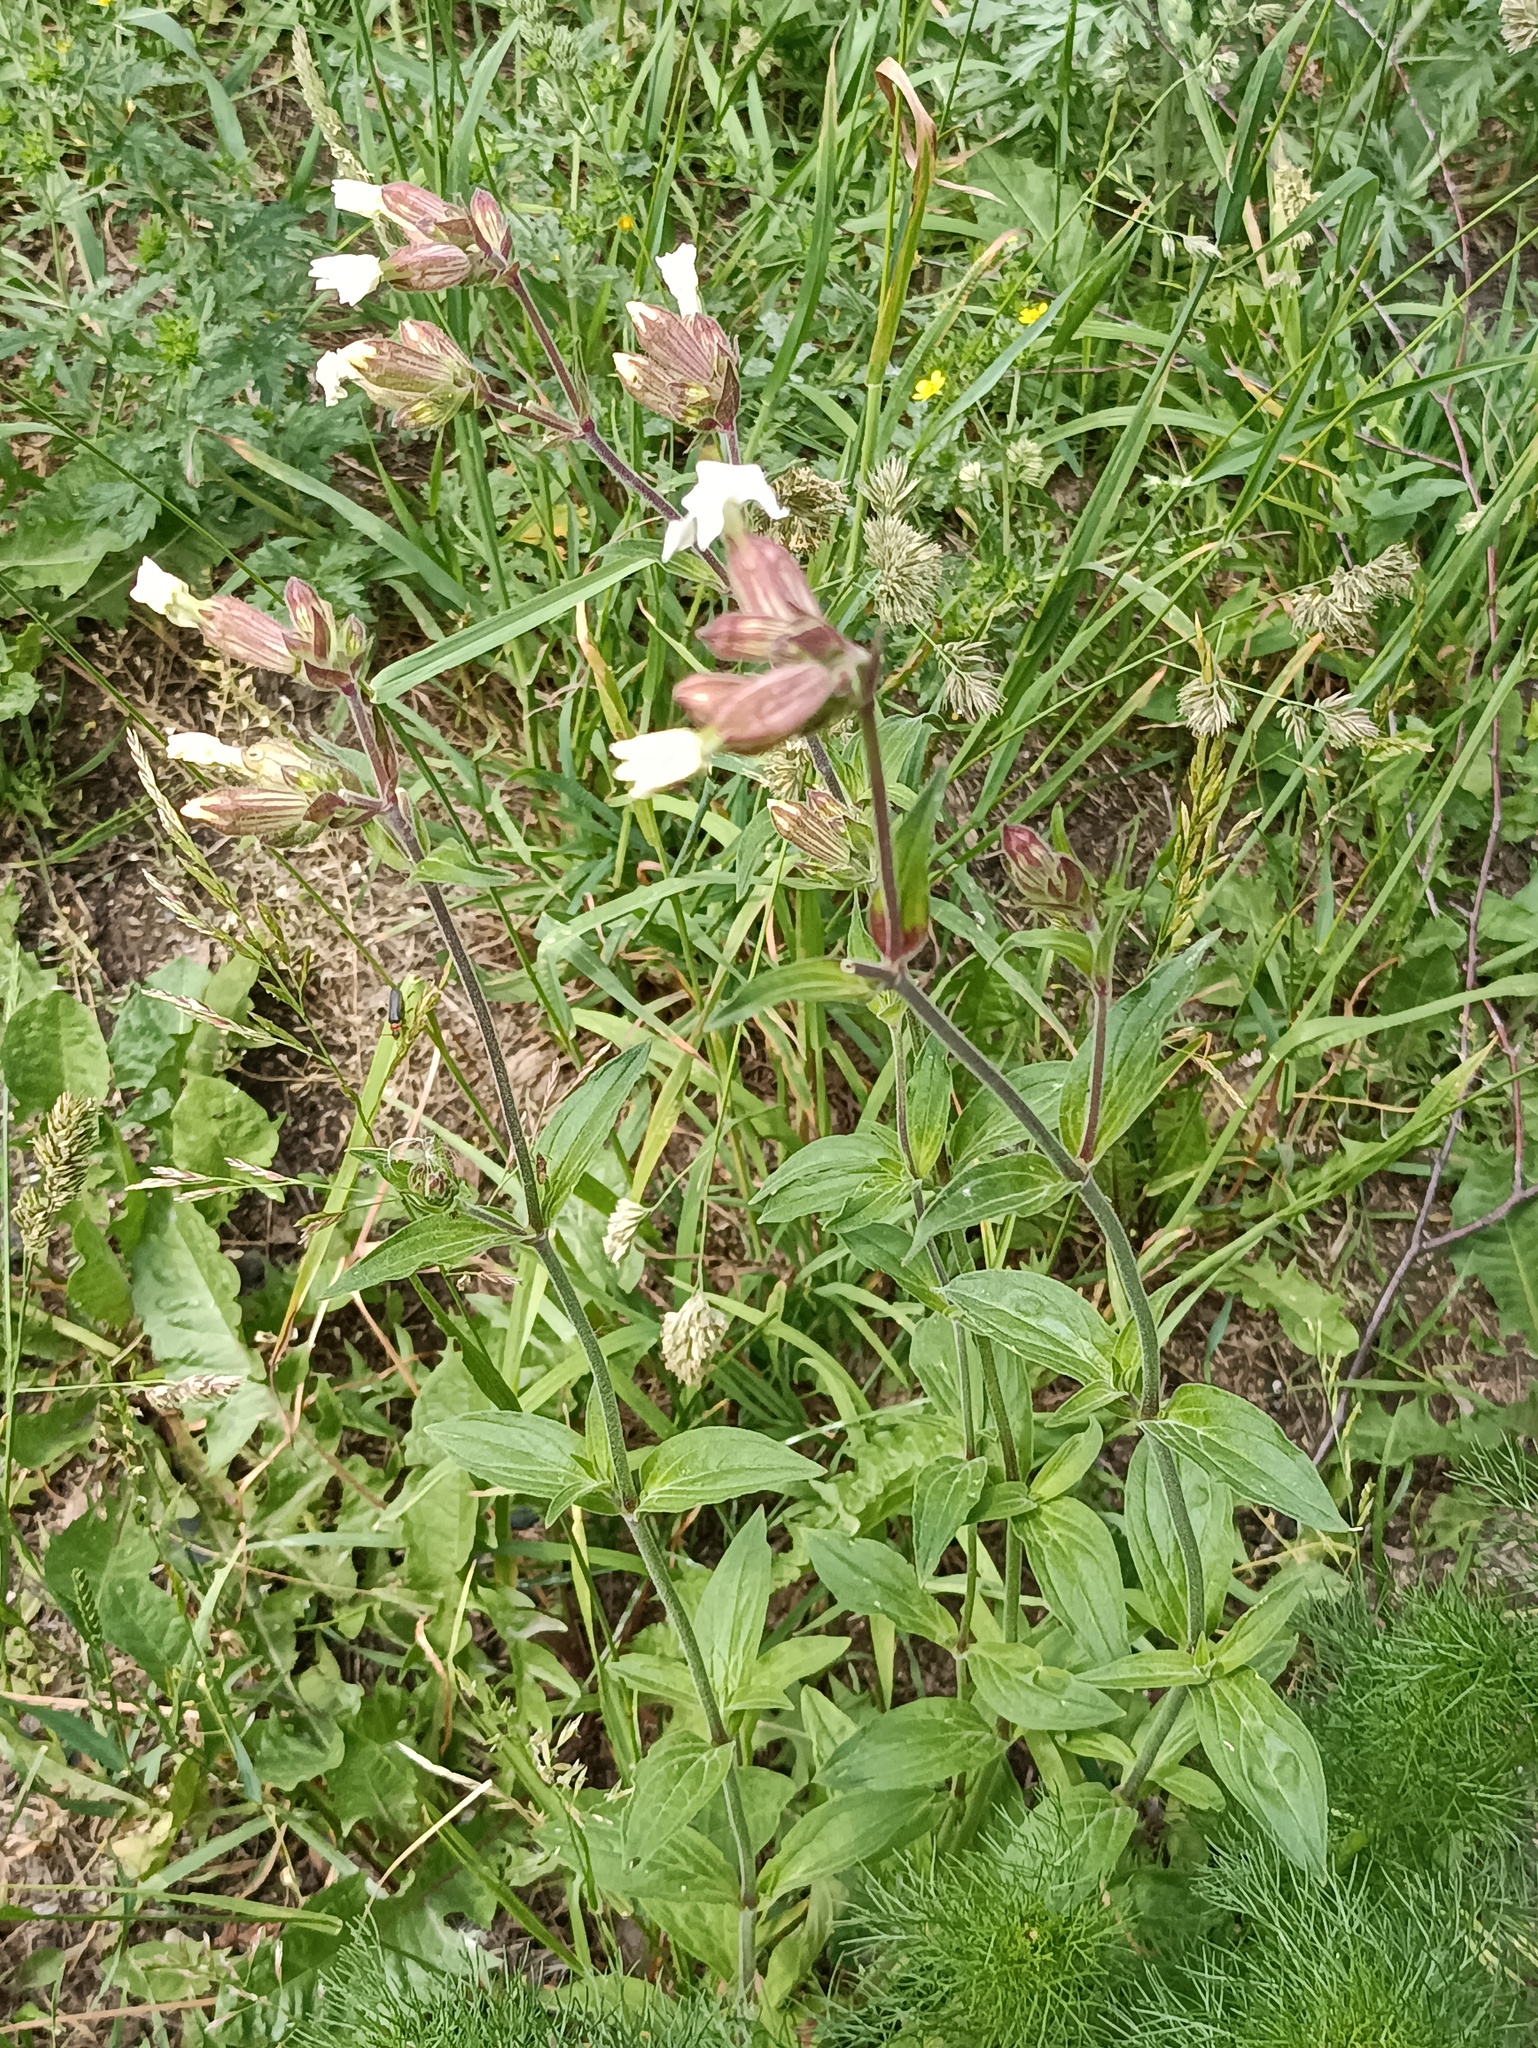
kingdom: Plantae
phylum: Tracheophyta
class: Magnoliopsida
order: Caryophyllales
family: Caryophyllaceae
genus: Silene
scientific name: Silene latifolia
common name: White campion
